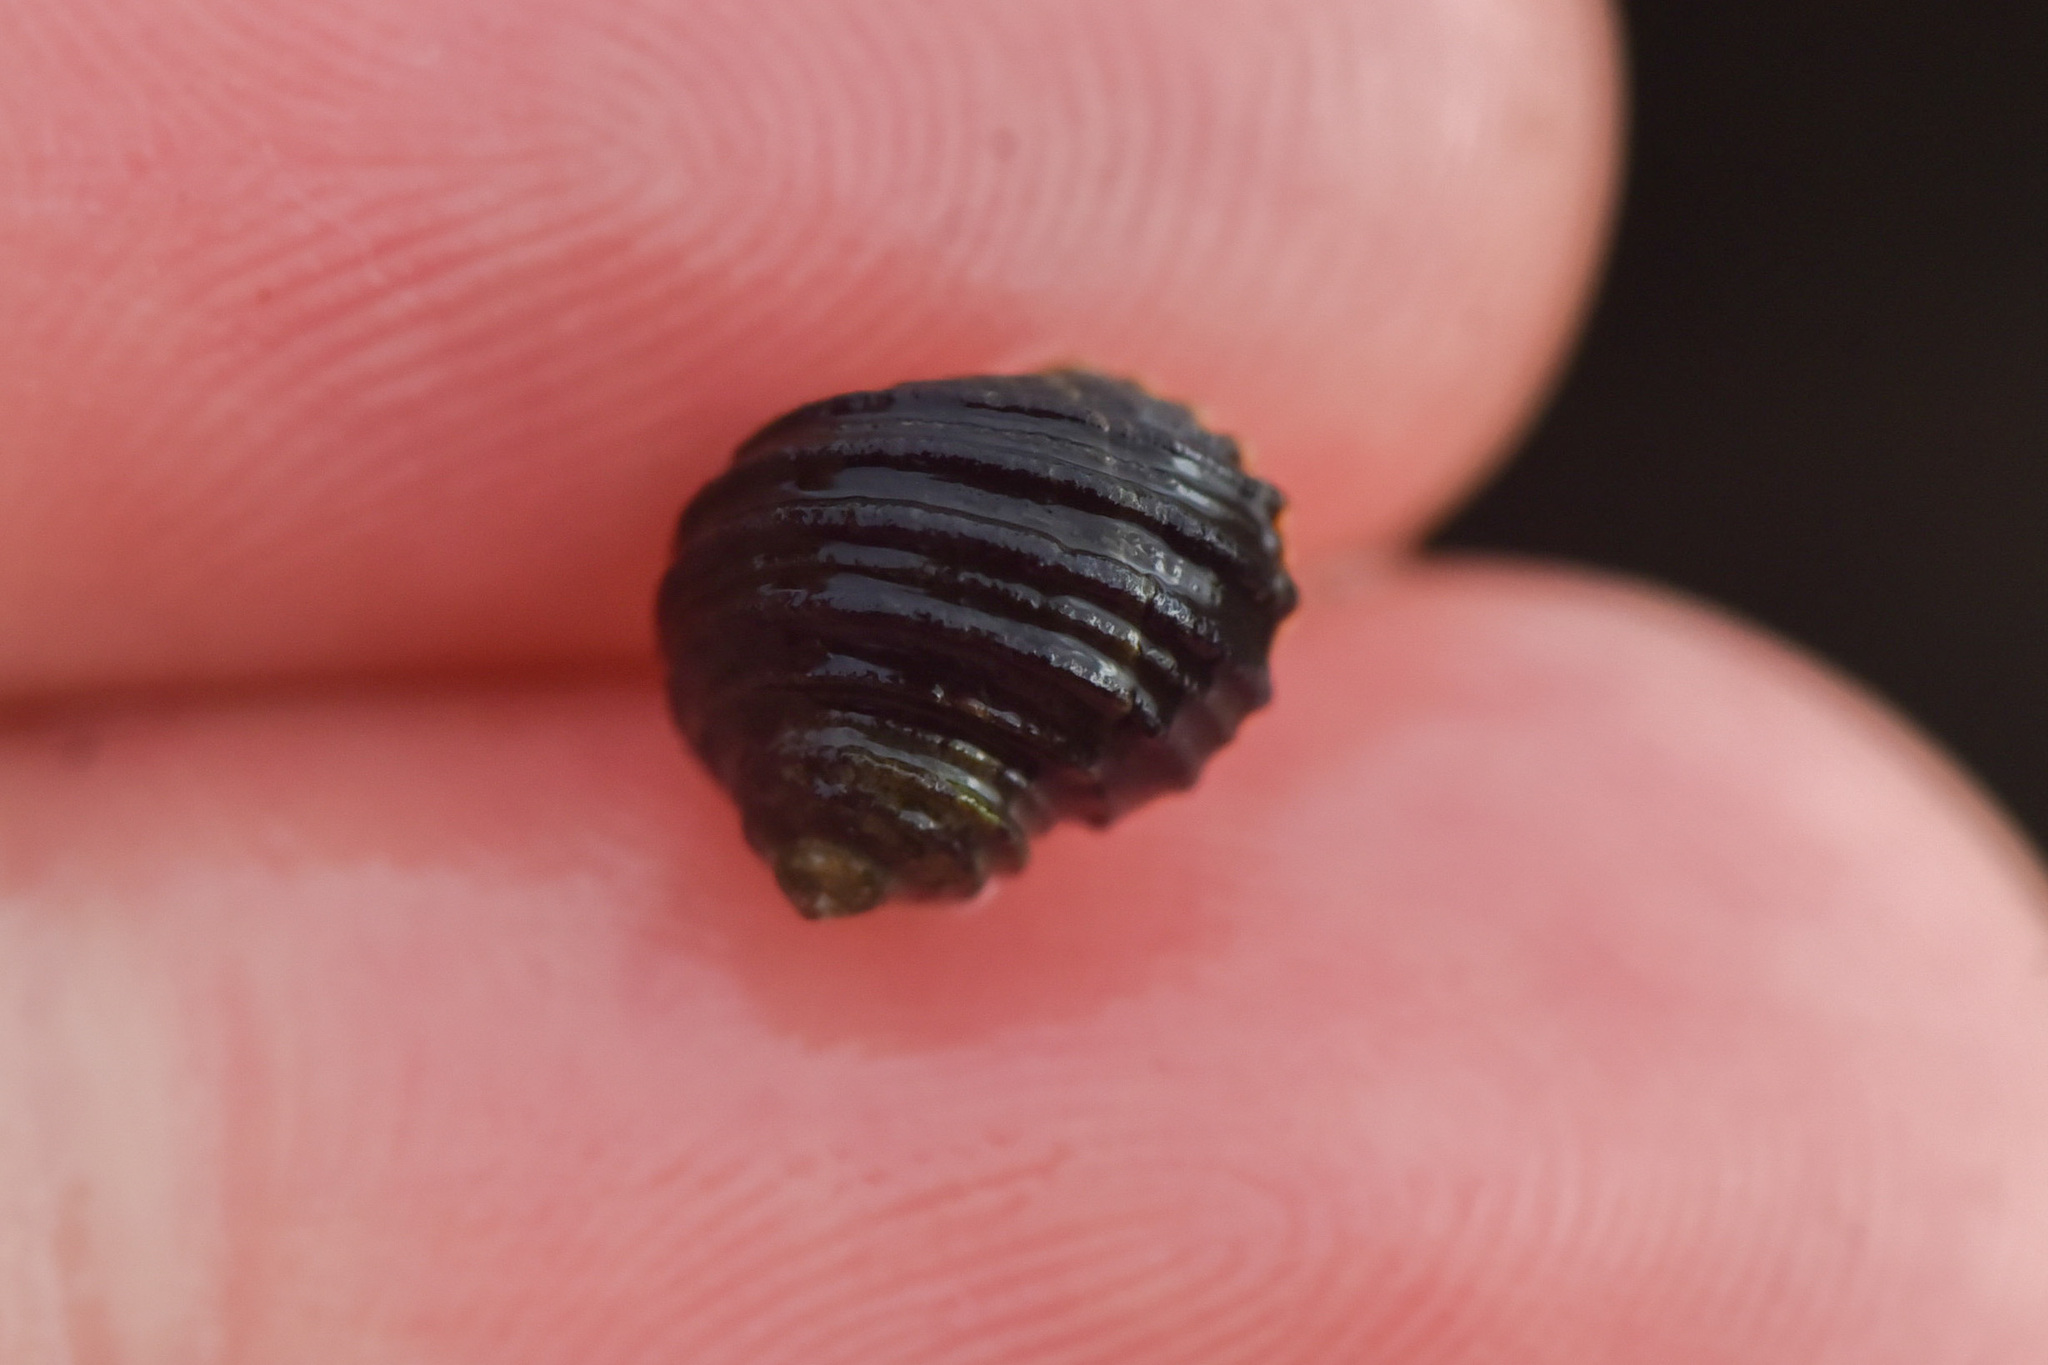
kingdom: Animalia
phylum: Mollusca
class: Gastropoda
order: Littorinimorpha
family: Littorinidae
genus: Littorina
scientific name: Littorina sitkana
